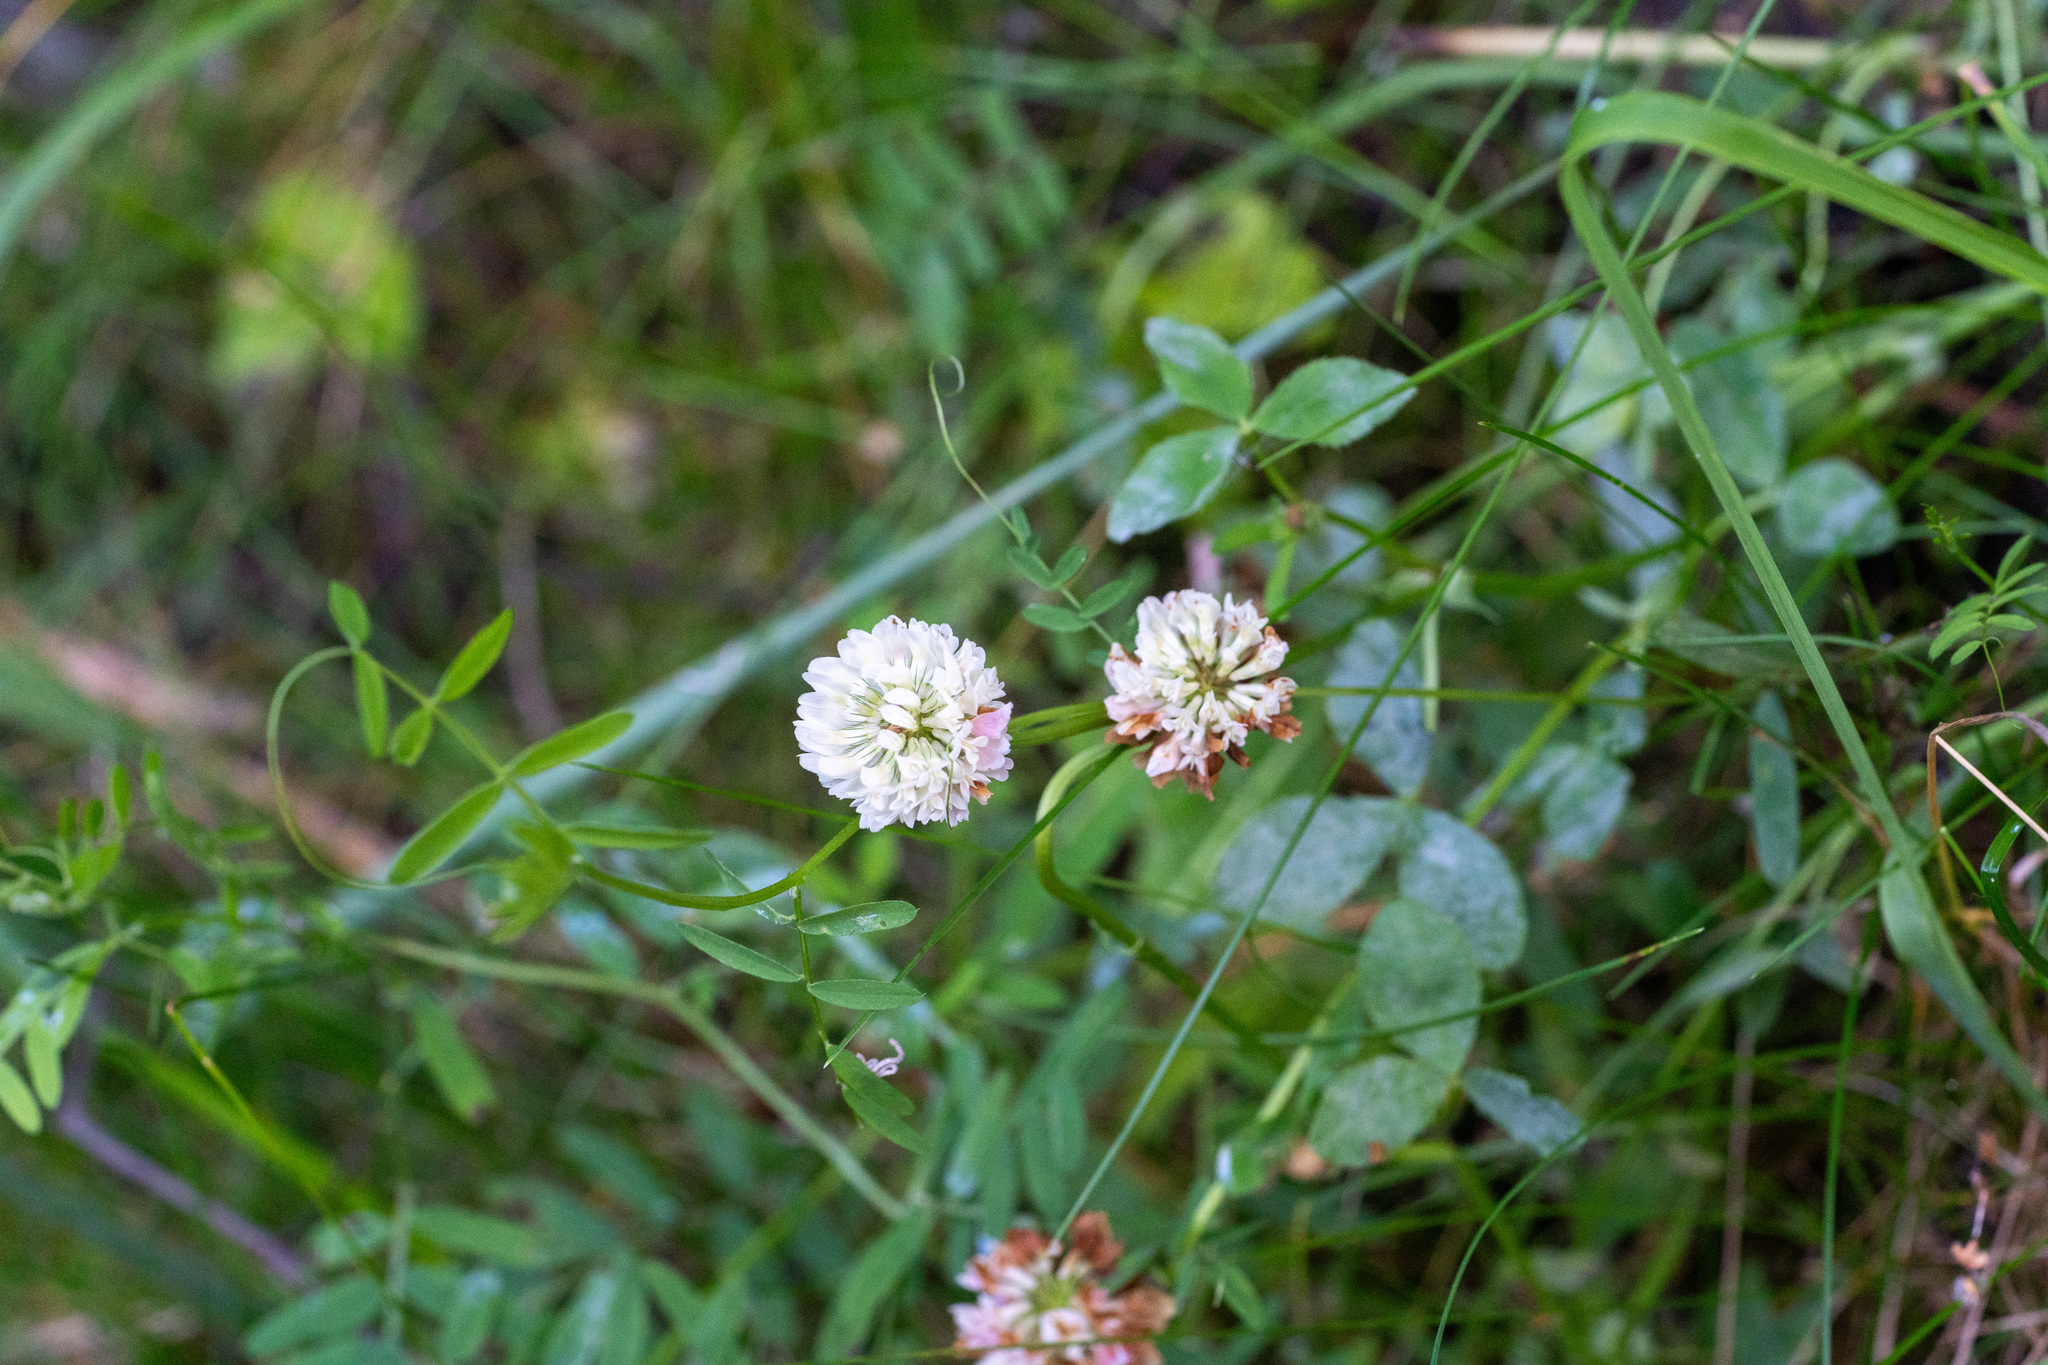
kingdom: Plantae
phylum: Tracheophyta
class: Magnoliopsida
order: Fabales
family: Fabaceae
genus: Trifolium
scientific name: Trifolium hybridum
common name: Alsike clover
